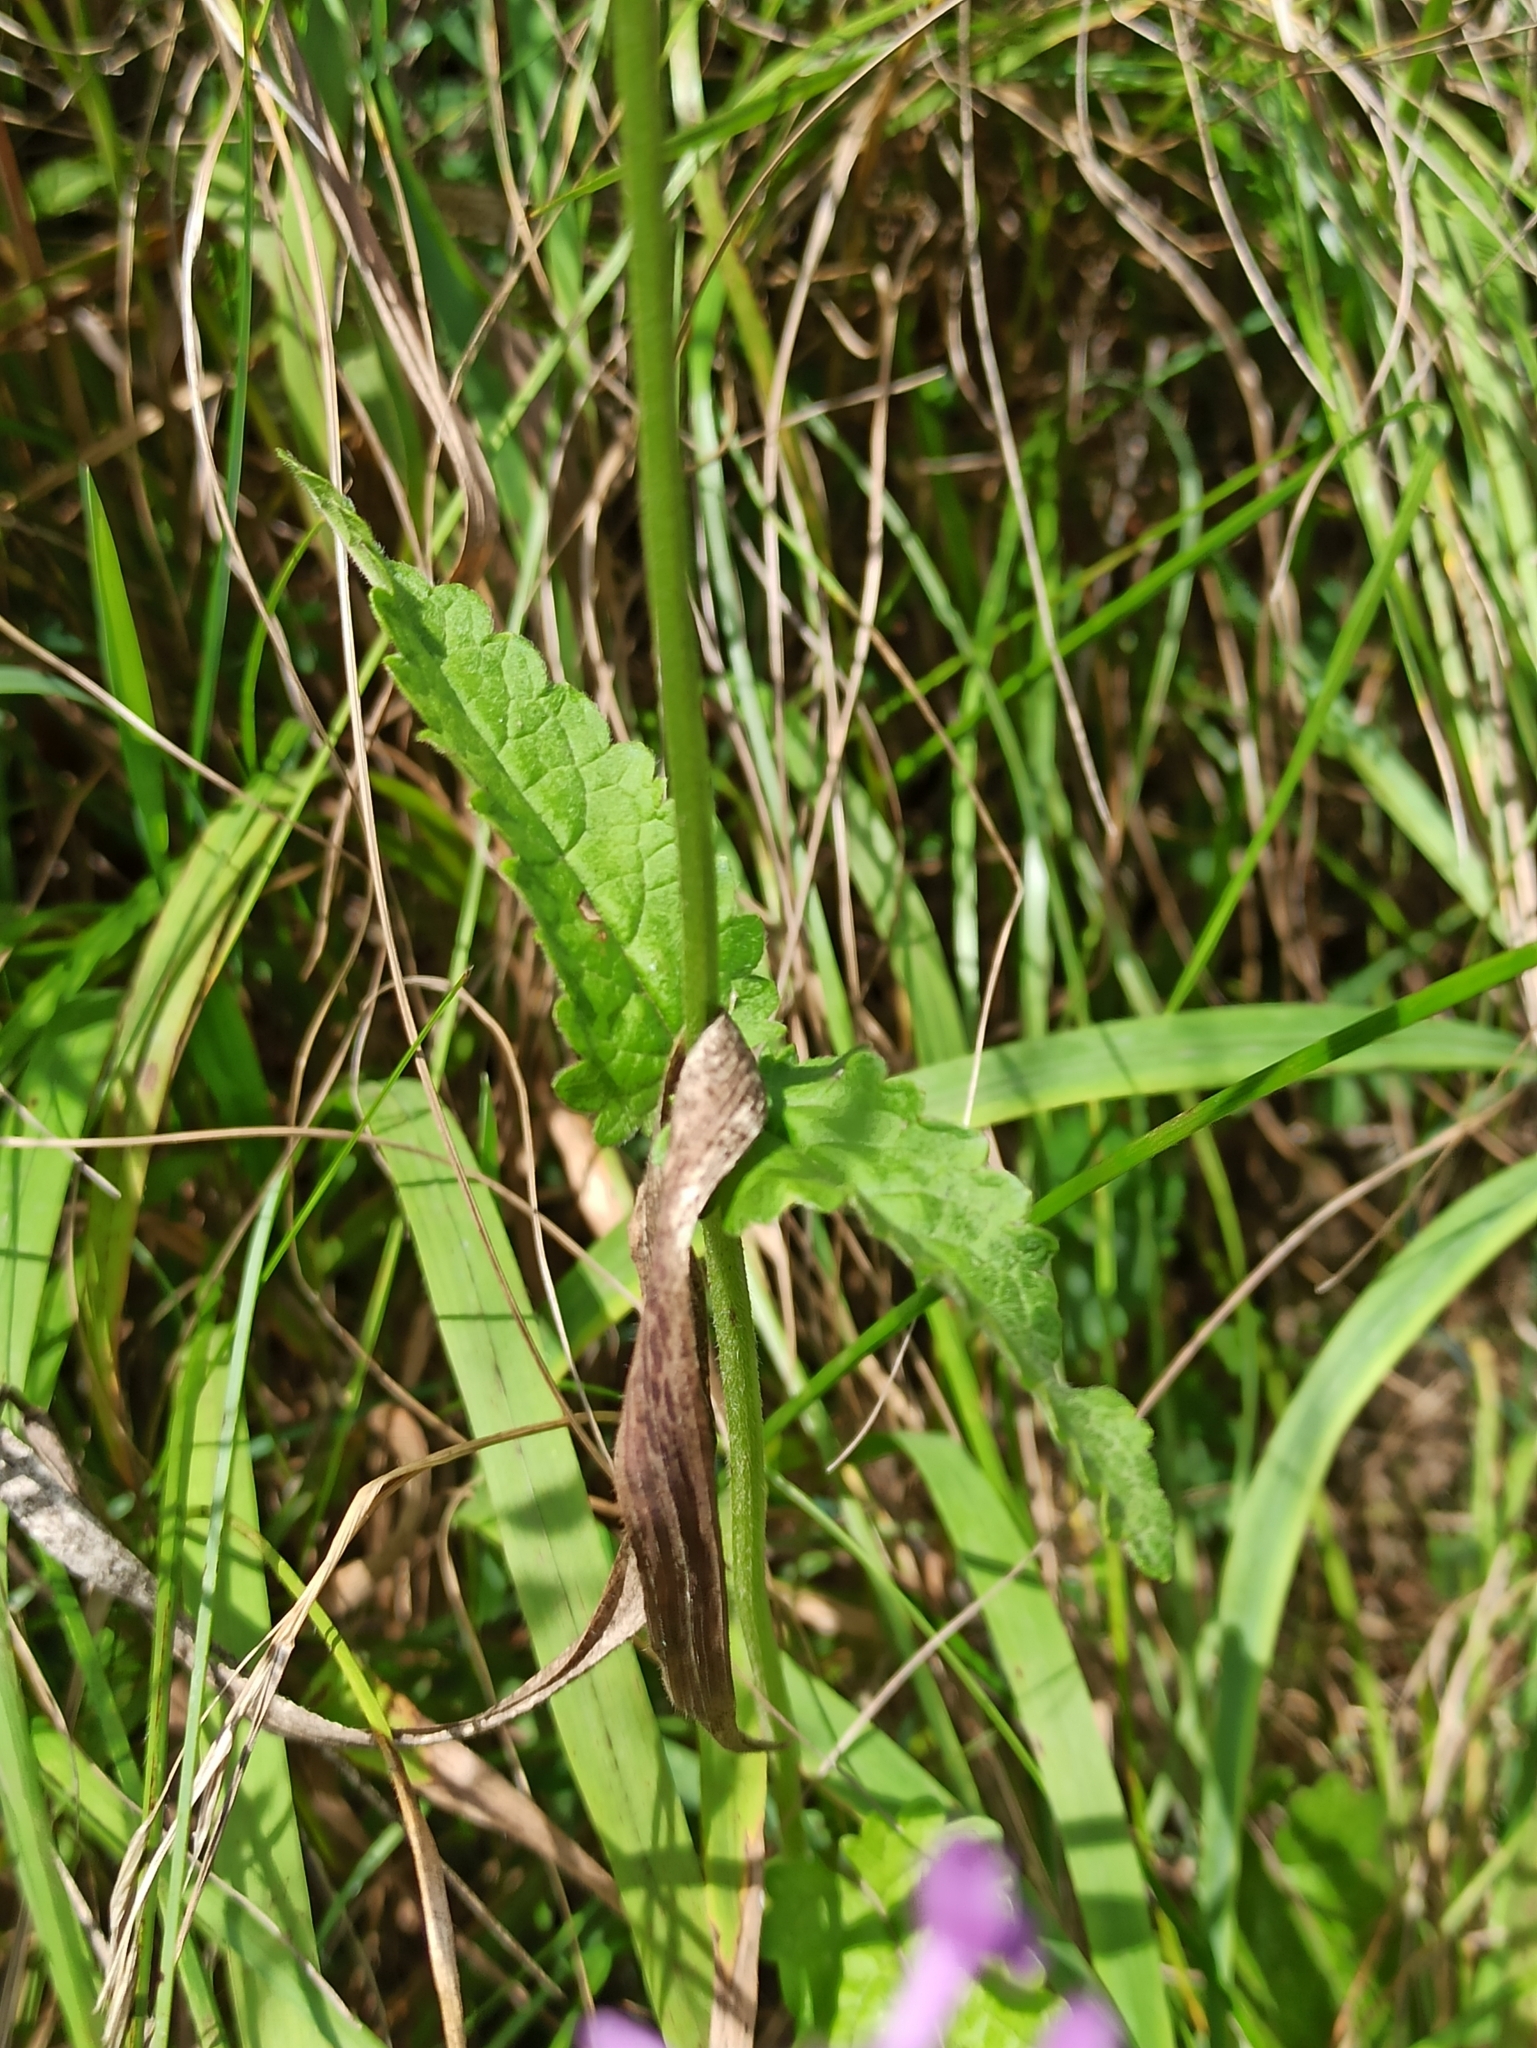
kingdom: Plantae
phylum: Tracheophyta
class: Magnoliopsida
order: Lamiales
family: Lamiaceae
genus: Betonica
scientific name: Betonica officinalis
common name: Bishop's-wort
